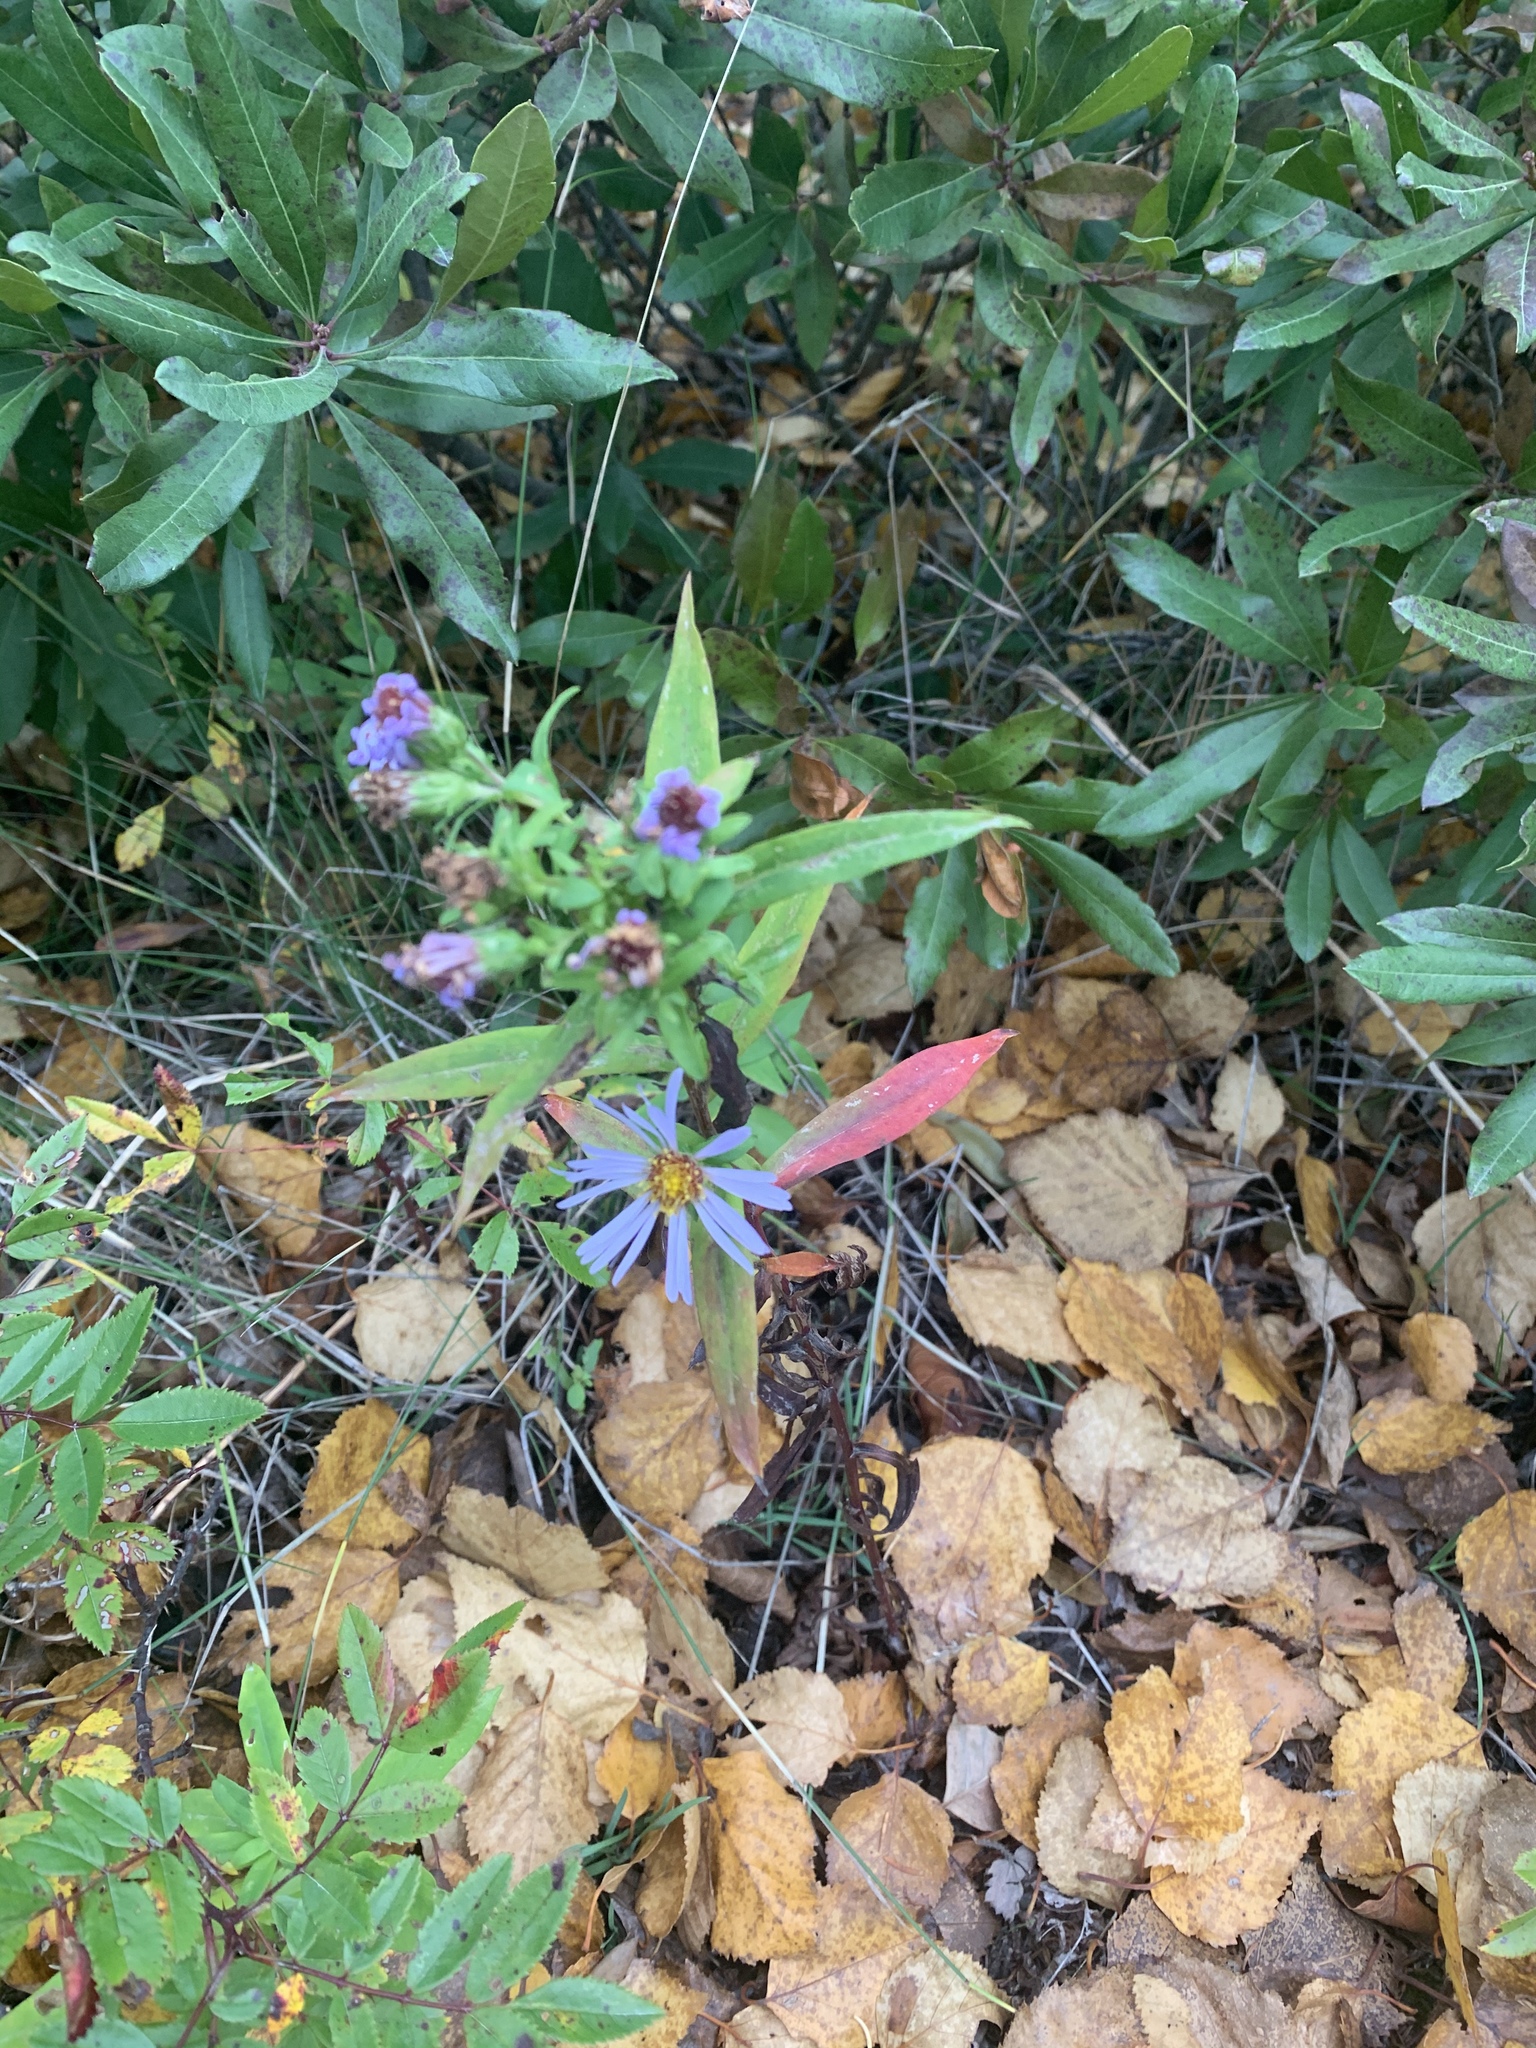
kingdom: Plantae
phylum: Tracheophyta
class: Magnoliopsida
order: Asterales
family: Asteraceae
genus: Symphyotrichum
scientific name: Symphyotrichum novi-belgii
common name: Michaelmas daisy
